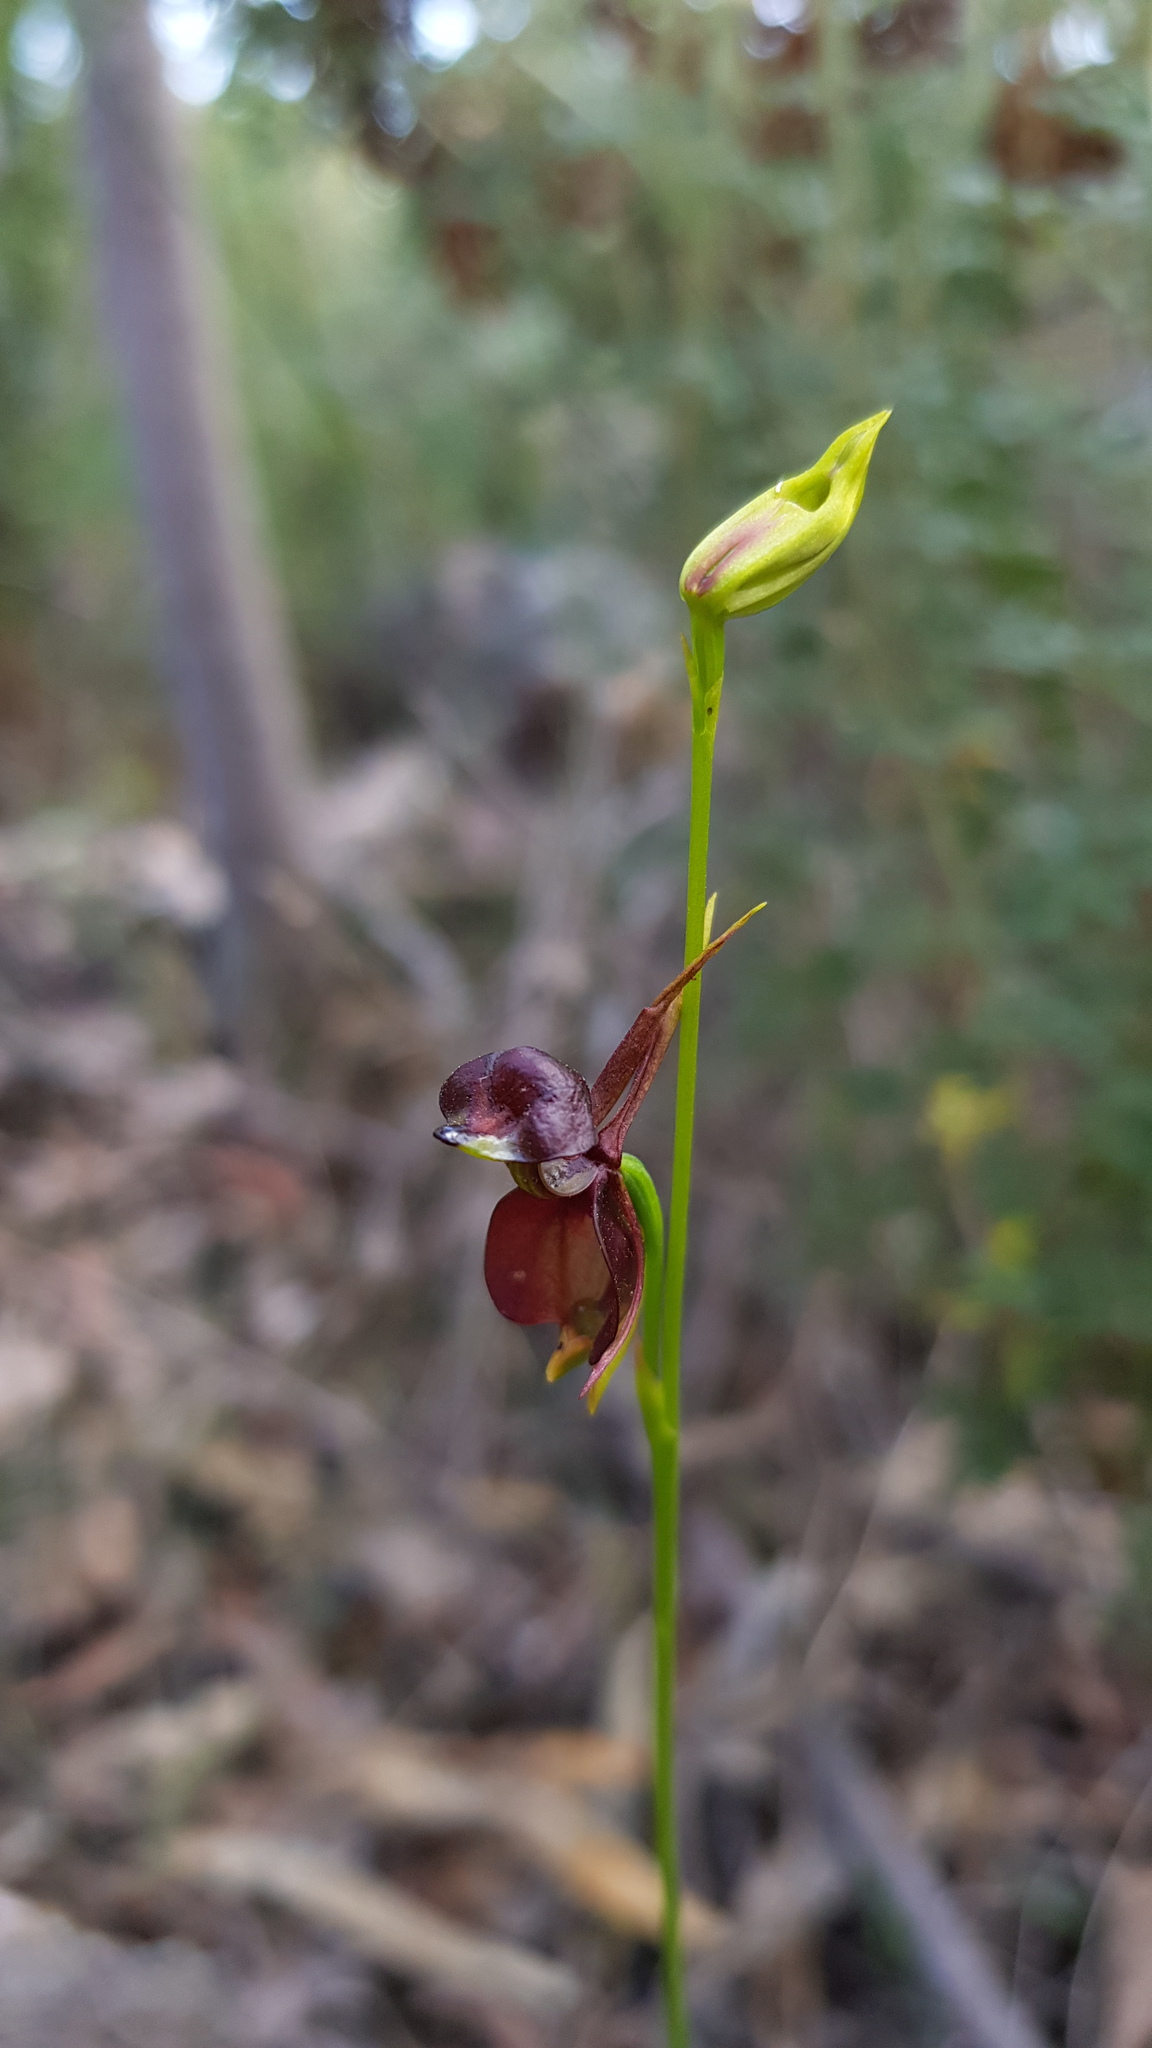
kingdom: Plantae
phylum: Tracheophyta
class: Liliopsida
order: Asparagales
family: Orchidaceae
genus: Caleana
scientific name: Caleana major
